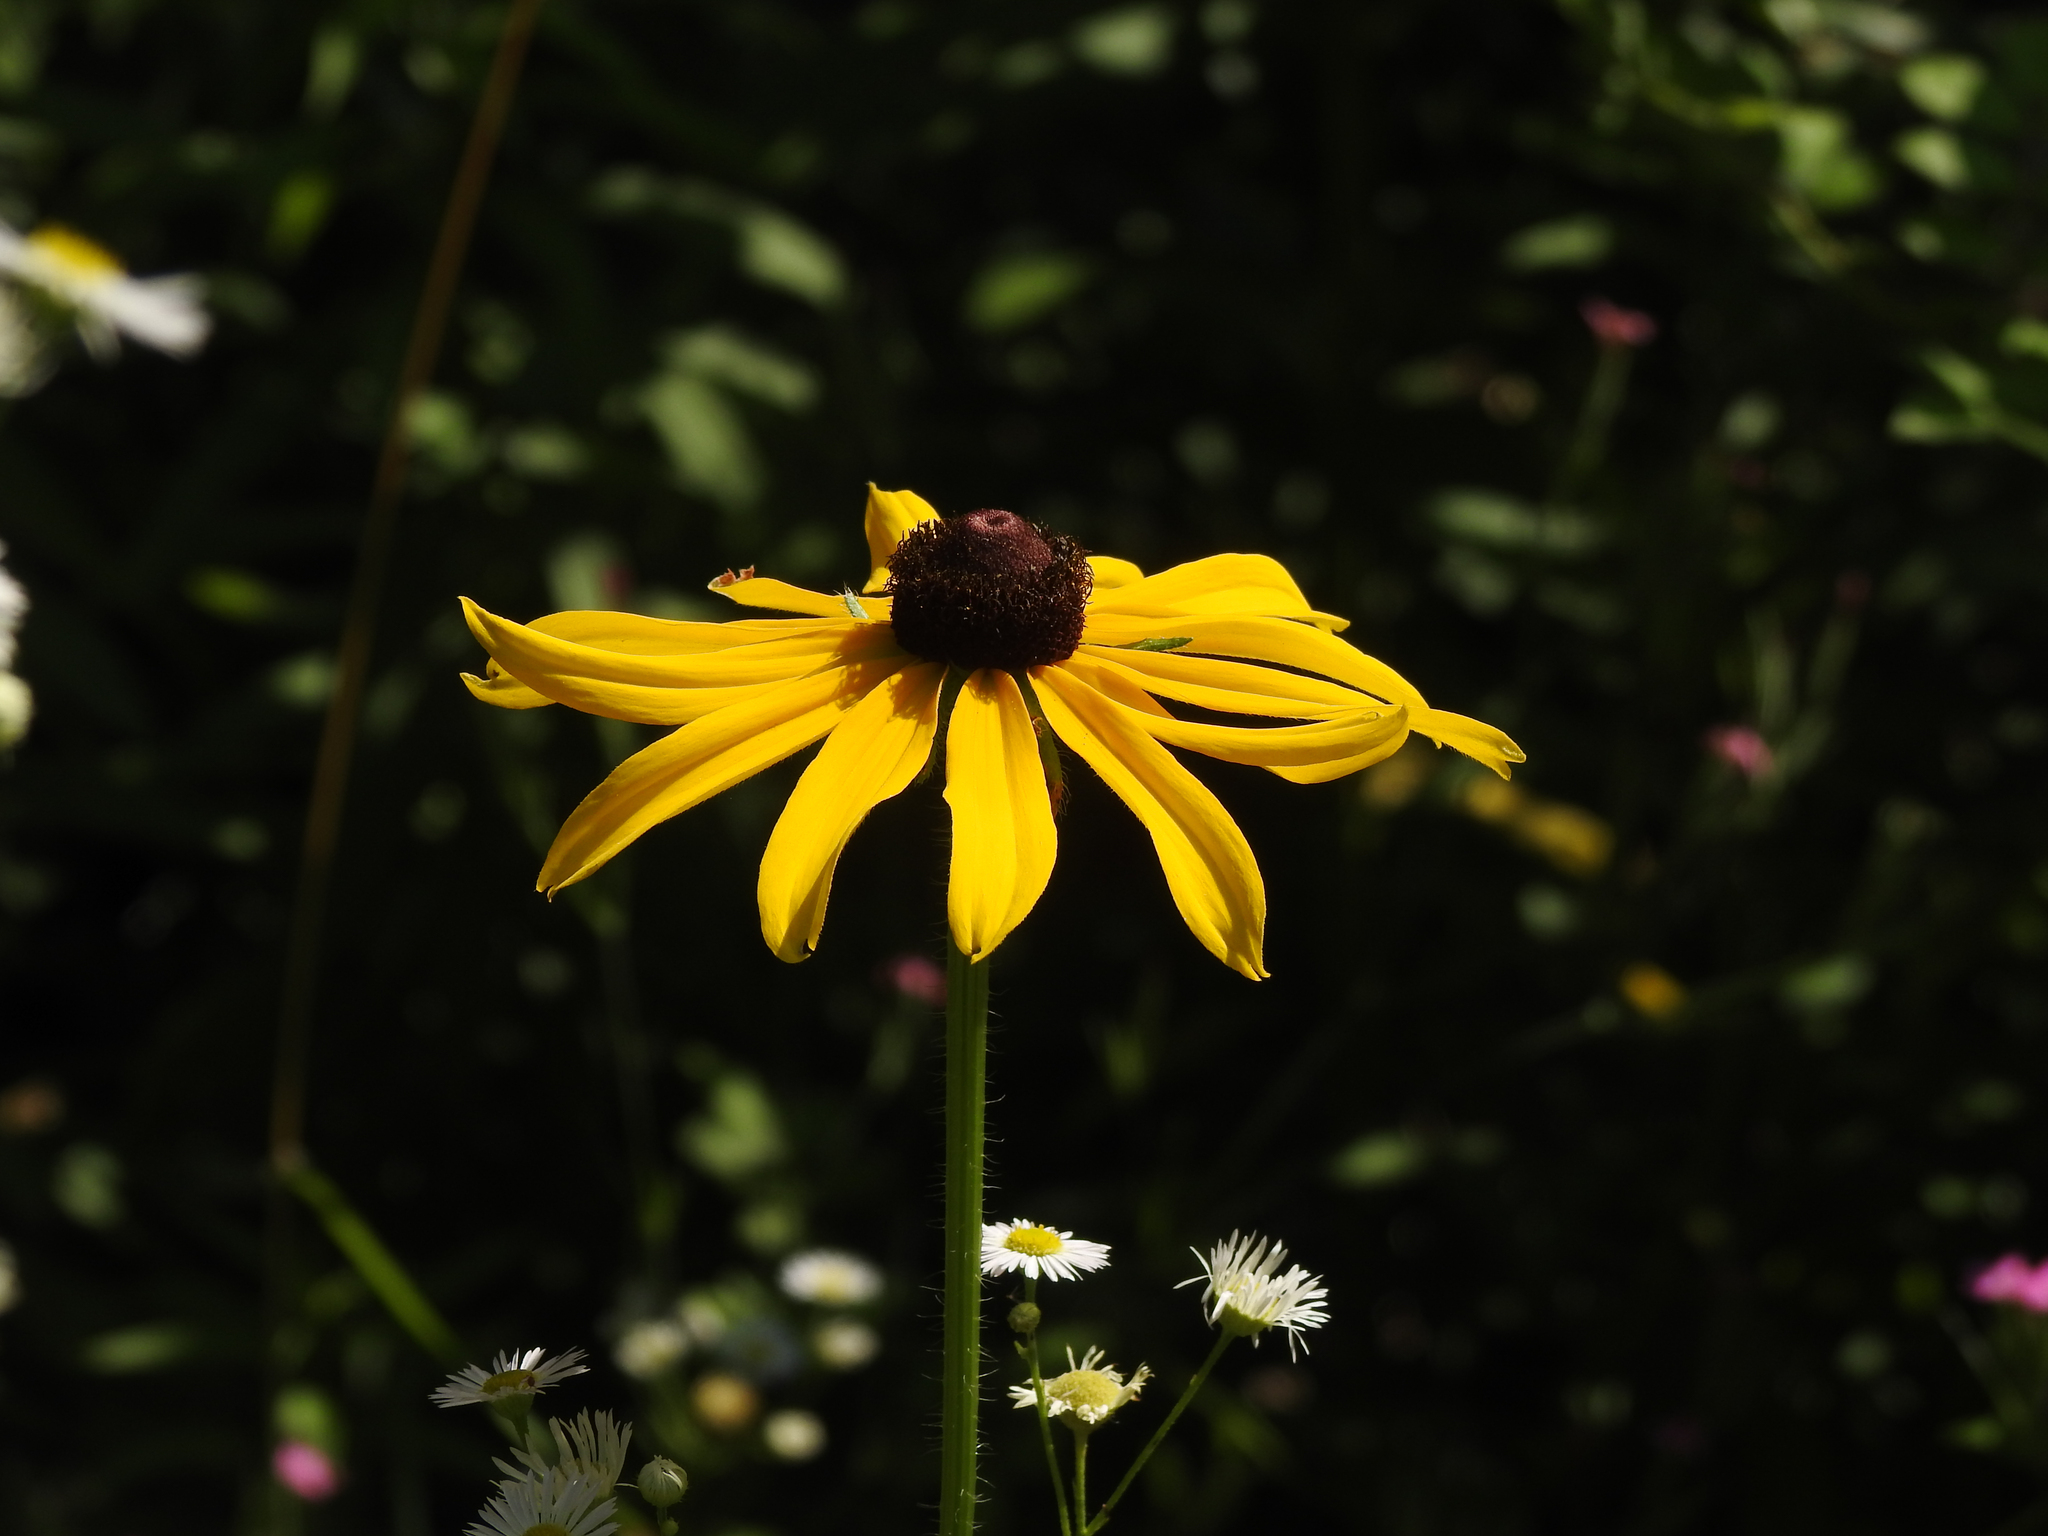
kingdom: Plantae
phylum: Tracheophyta
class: Magnoliopsida
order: Asterales
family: Asteraceae
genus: Rudbeckia
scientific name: Rudbeckia hirta
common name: Black-eyed-susan
